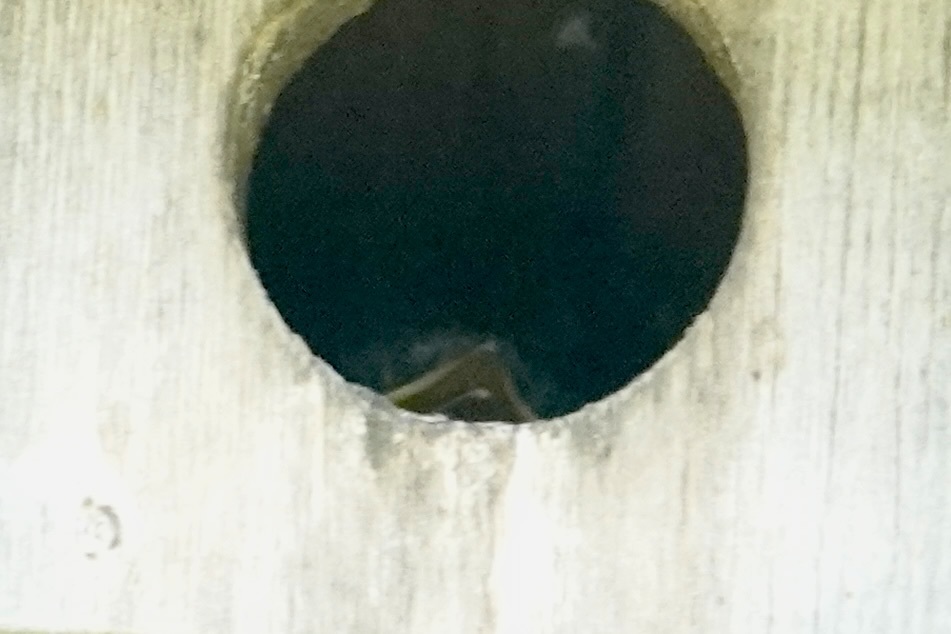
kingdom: Animalia
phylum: Chordata
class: Aves
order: Passeriformes
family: Turdidae
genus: Sialia
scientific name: Sialia sialis
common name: Eastern bluebird
